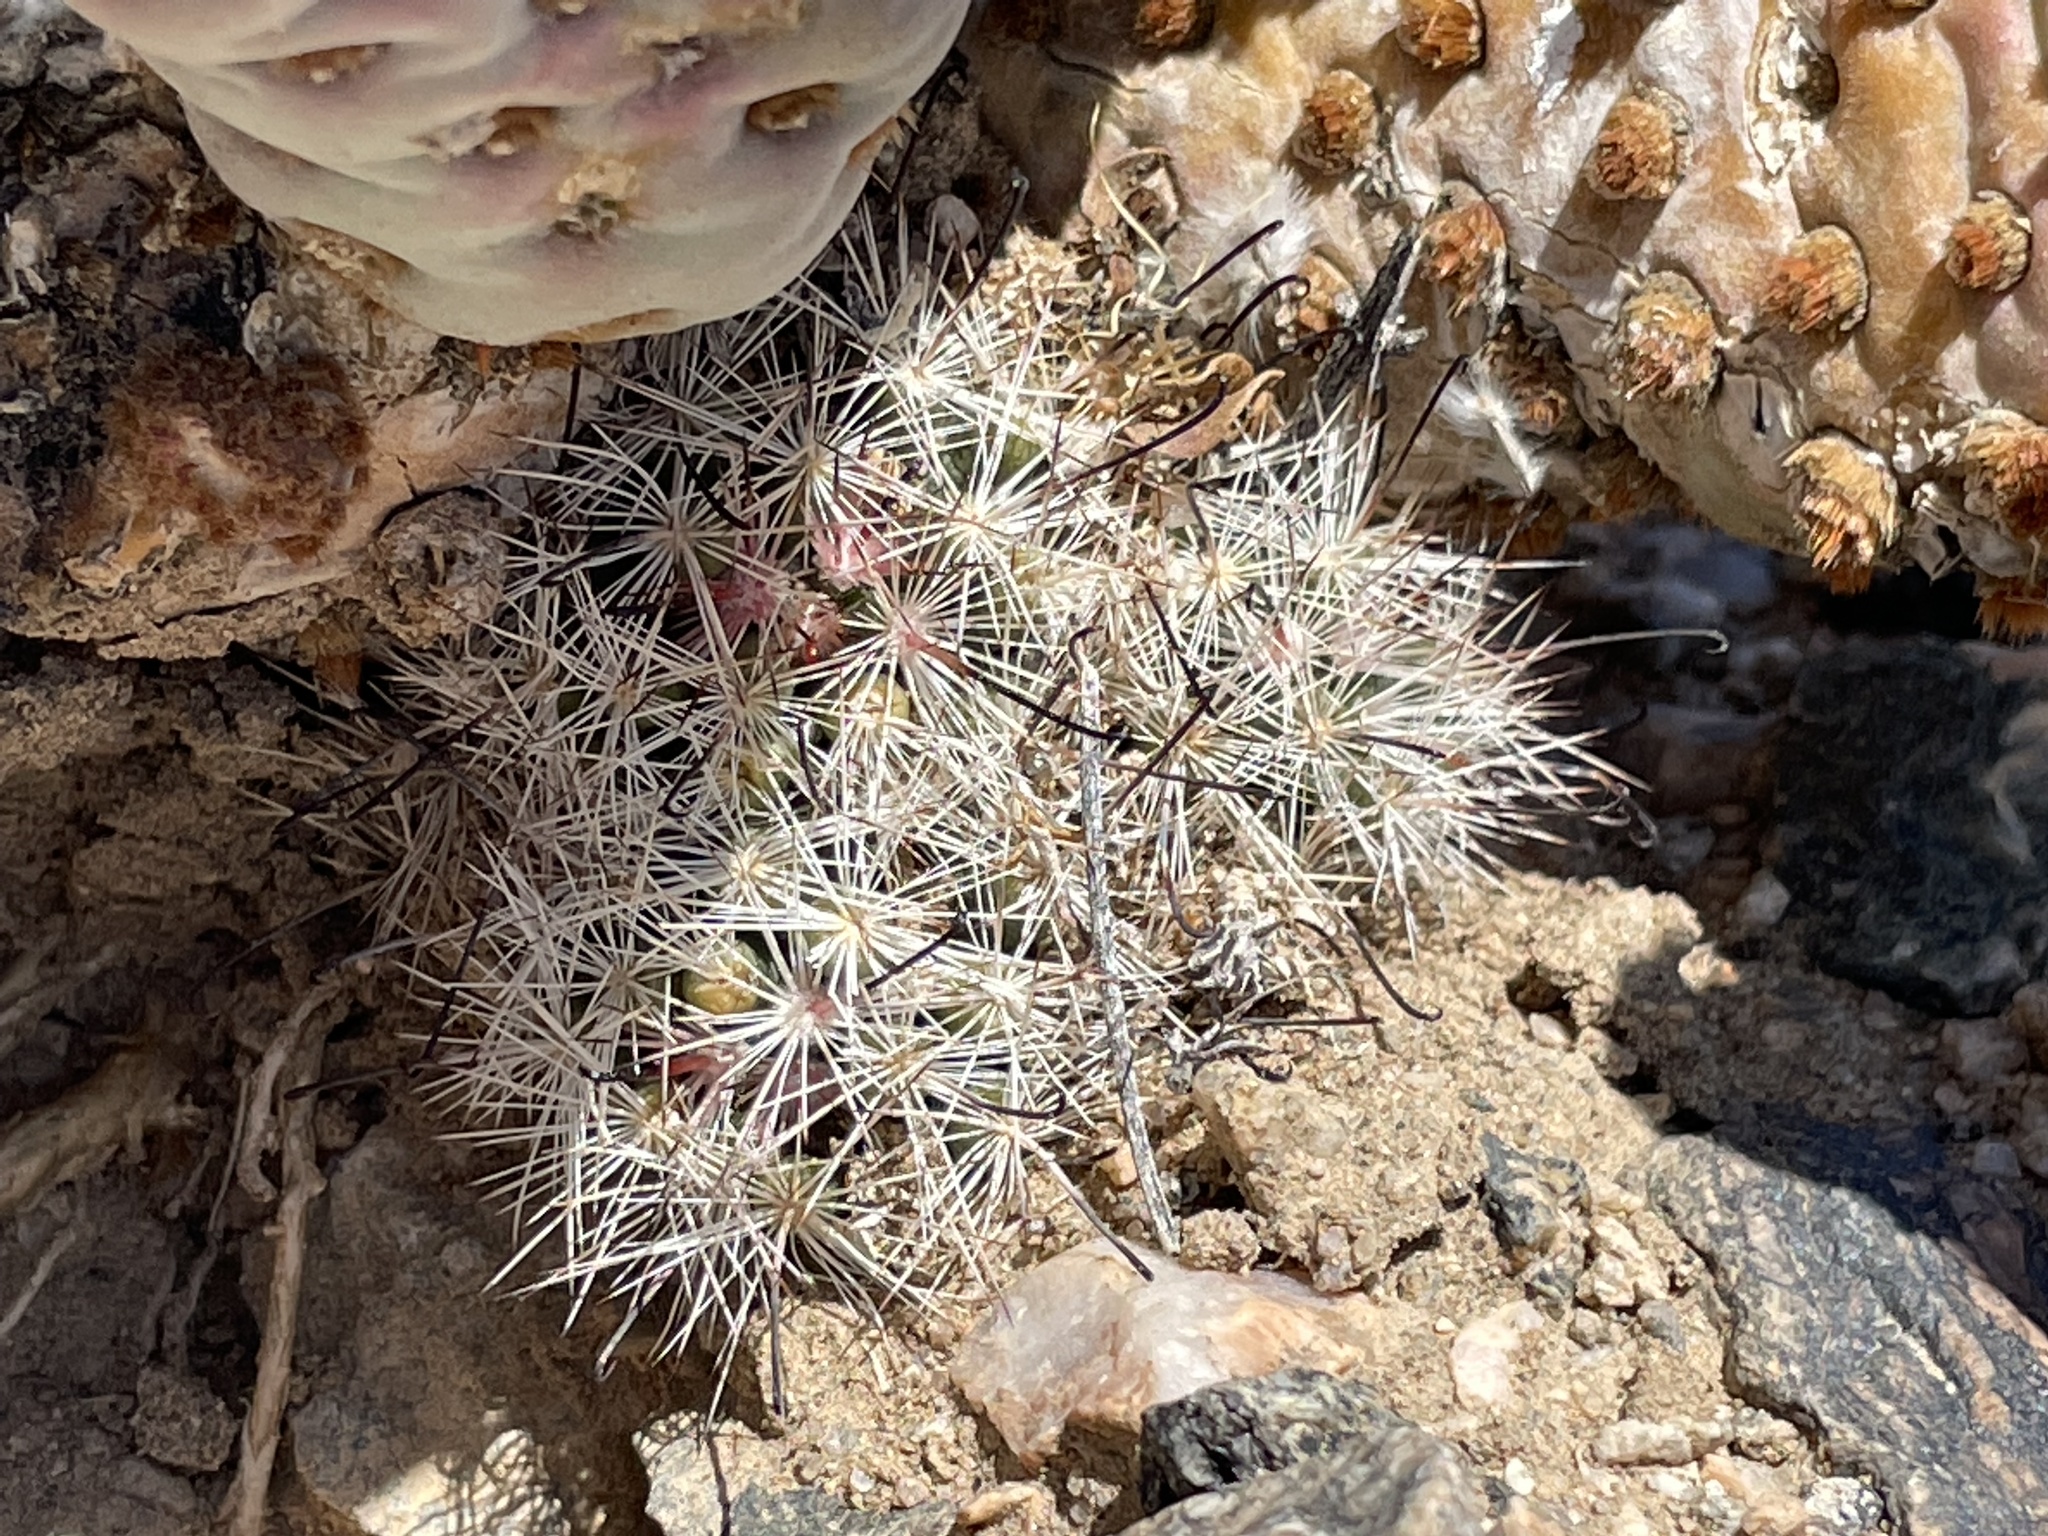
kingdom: Plantae
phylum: Tracheophyta
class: Magnoliopsida
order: Caryophyllales
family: Cactaceae
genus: Cochemiea
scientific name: Cochemiea tetrancistra
